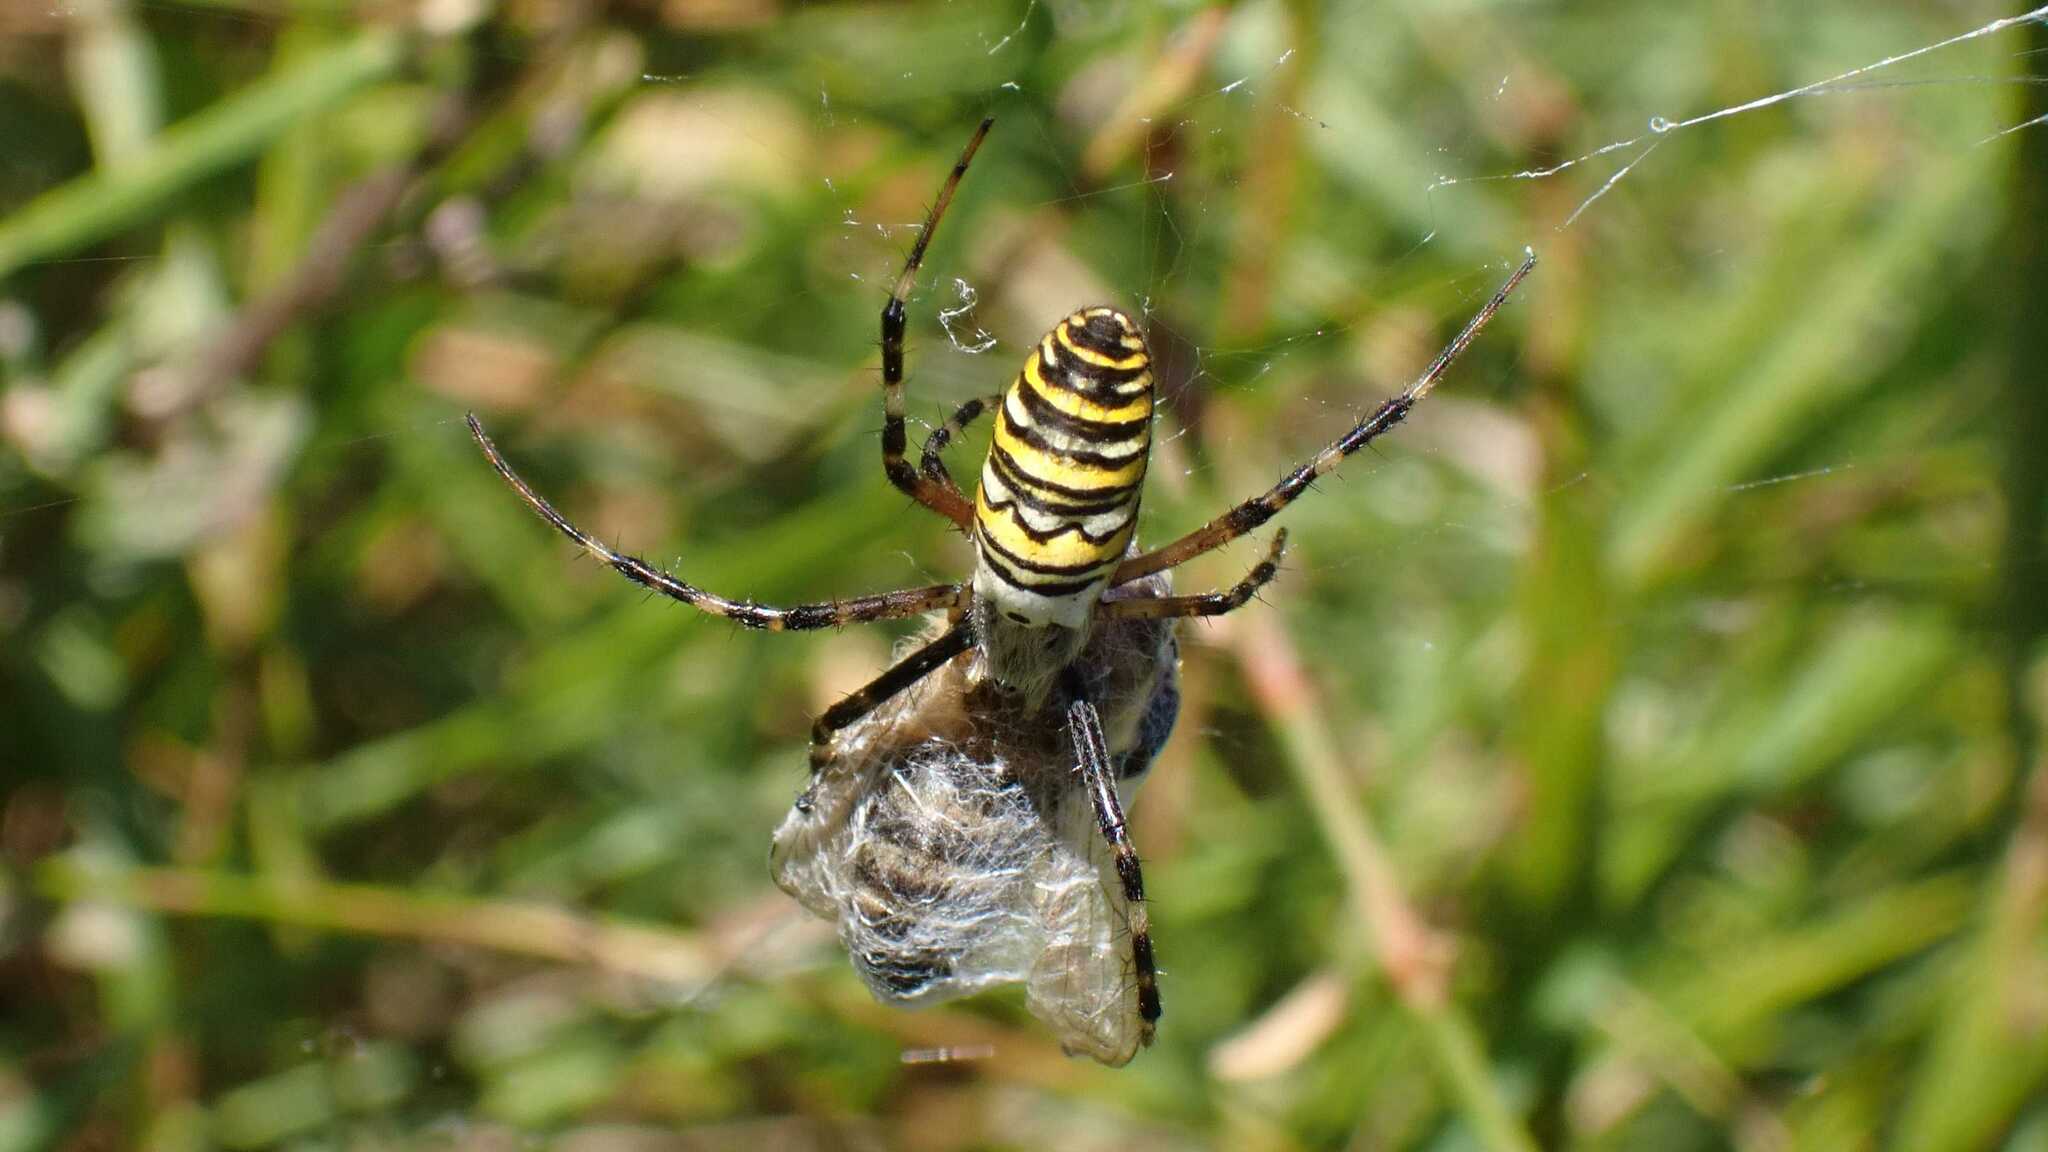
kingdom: Animalia
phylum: Arthropoda
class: Arachnida
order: Araneae
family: Araneidae
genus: Argiope
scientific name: Argiope bruennichi
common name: Wasp spider
